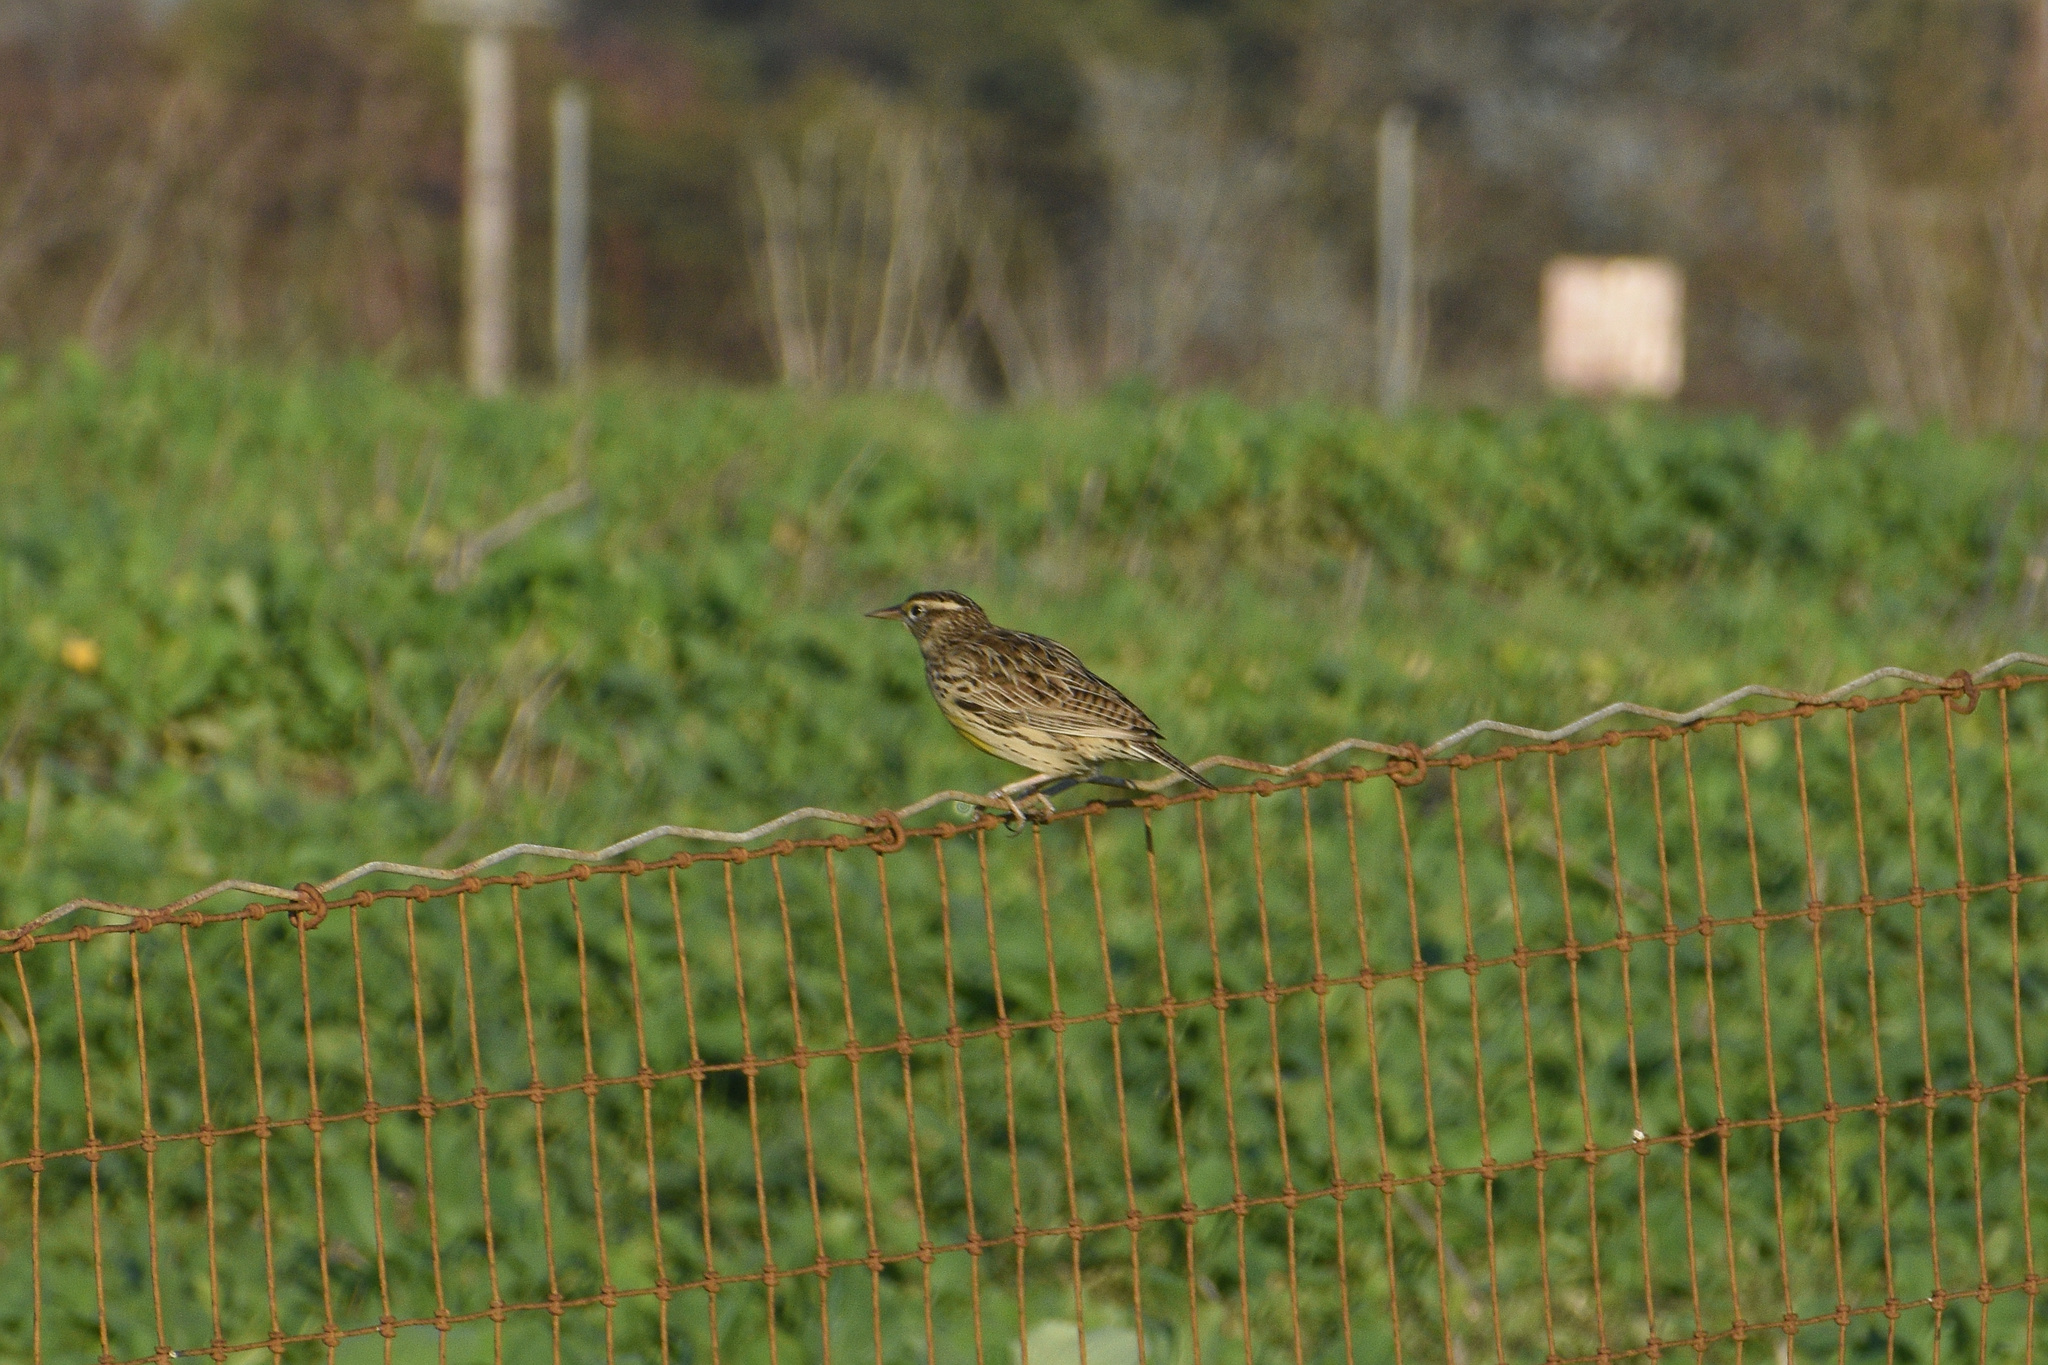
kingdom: Animalia
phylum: Chordata
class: Aves
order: Passeriformes
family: Icteridae
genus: Sturnella
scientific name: Sturnella neglecta
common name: Western meadowlark
